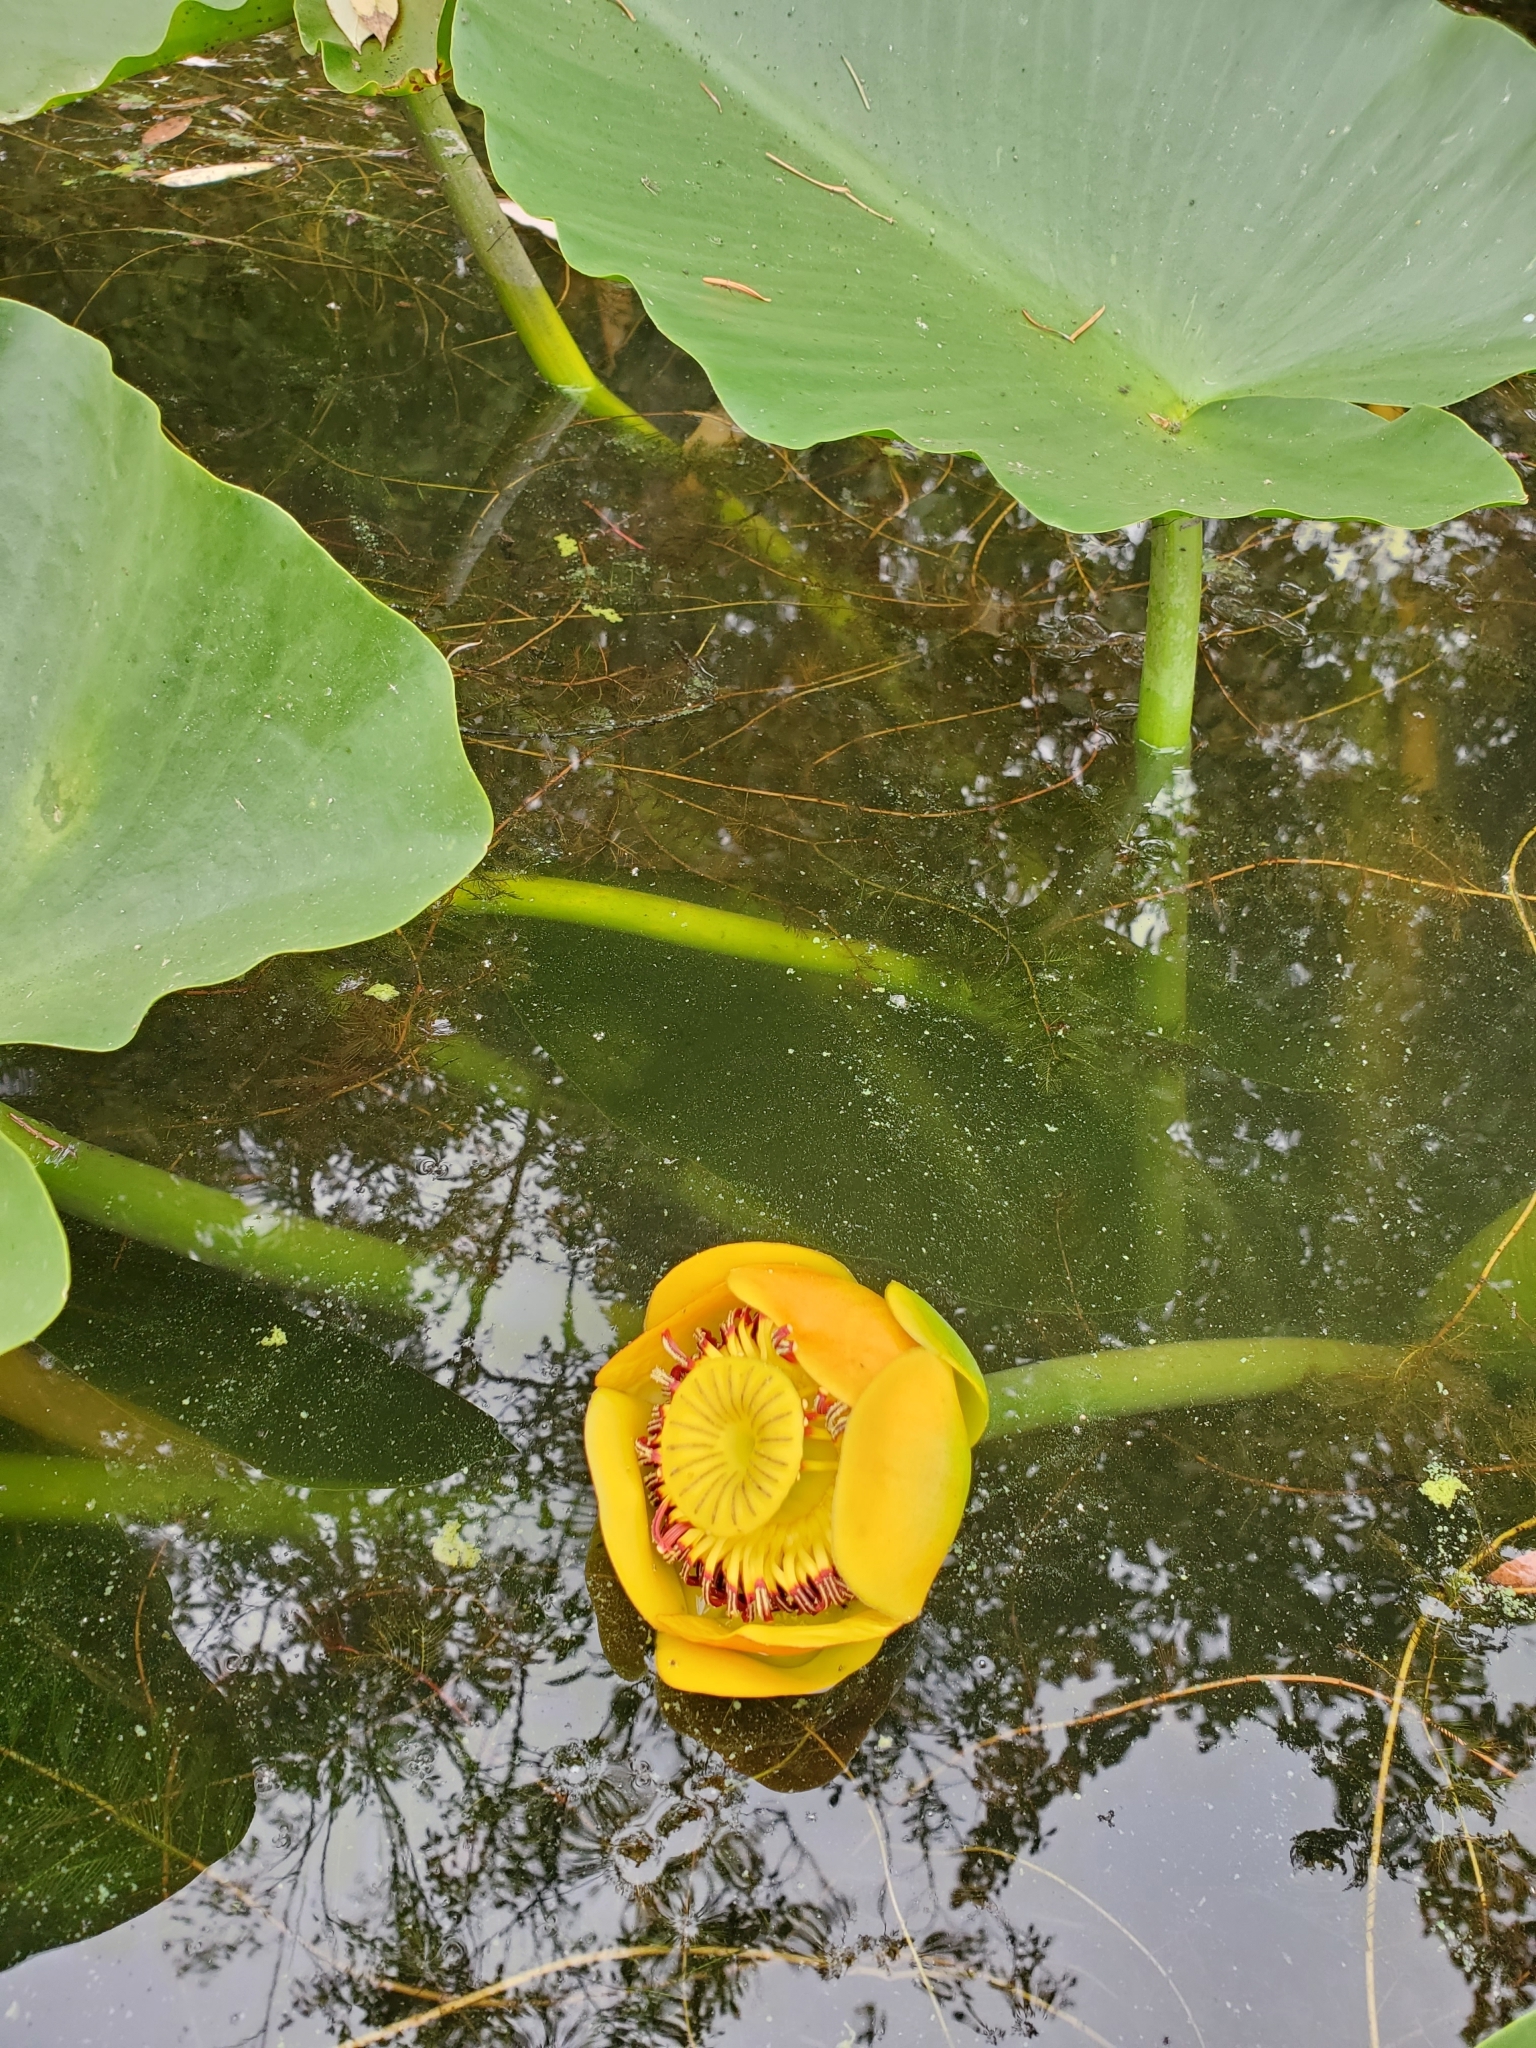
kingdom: Plantae
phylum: Tracheophyta
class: Magnoliopsida
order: Nymphaeales
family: Nymphaeaceae
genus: Nuphar
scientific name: Nuphar polysepala
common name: Rocky mountain cow-lily
